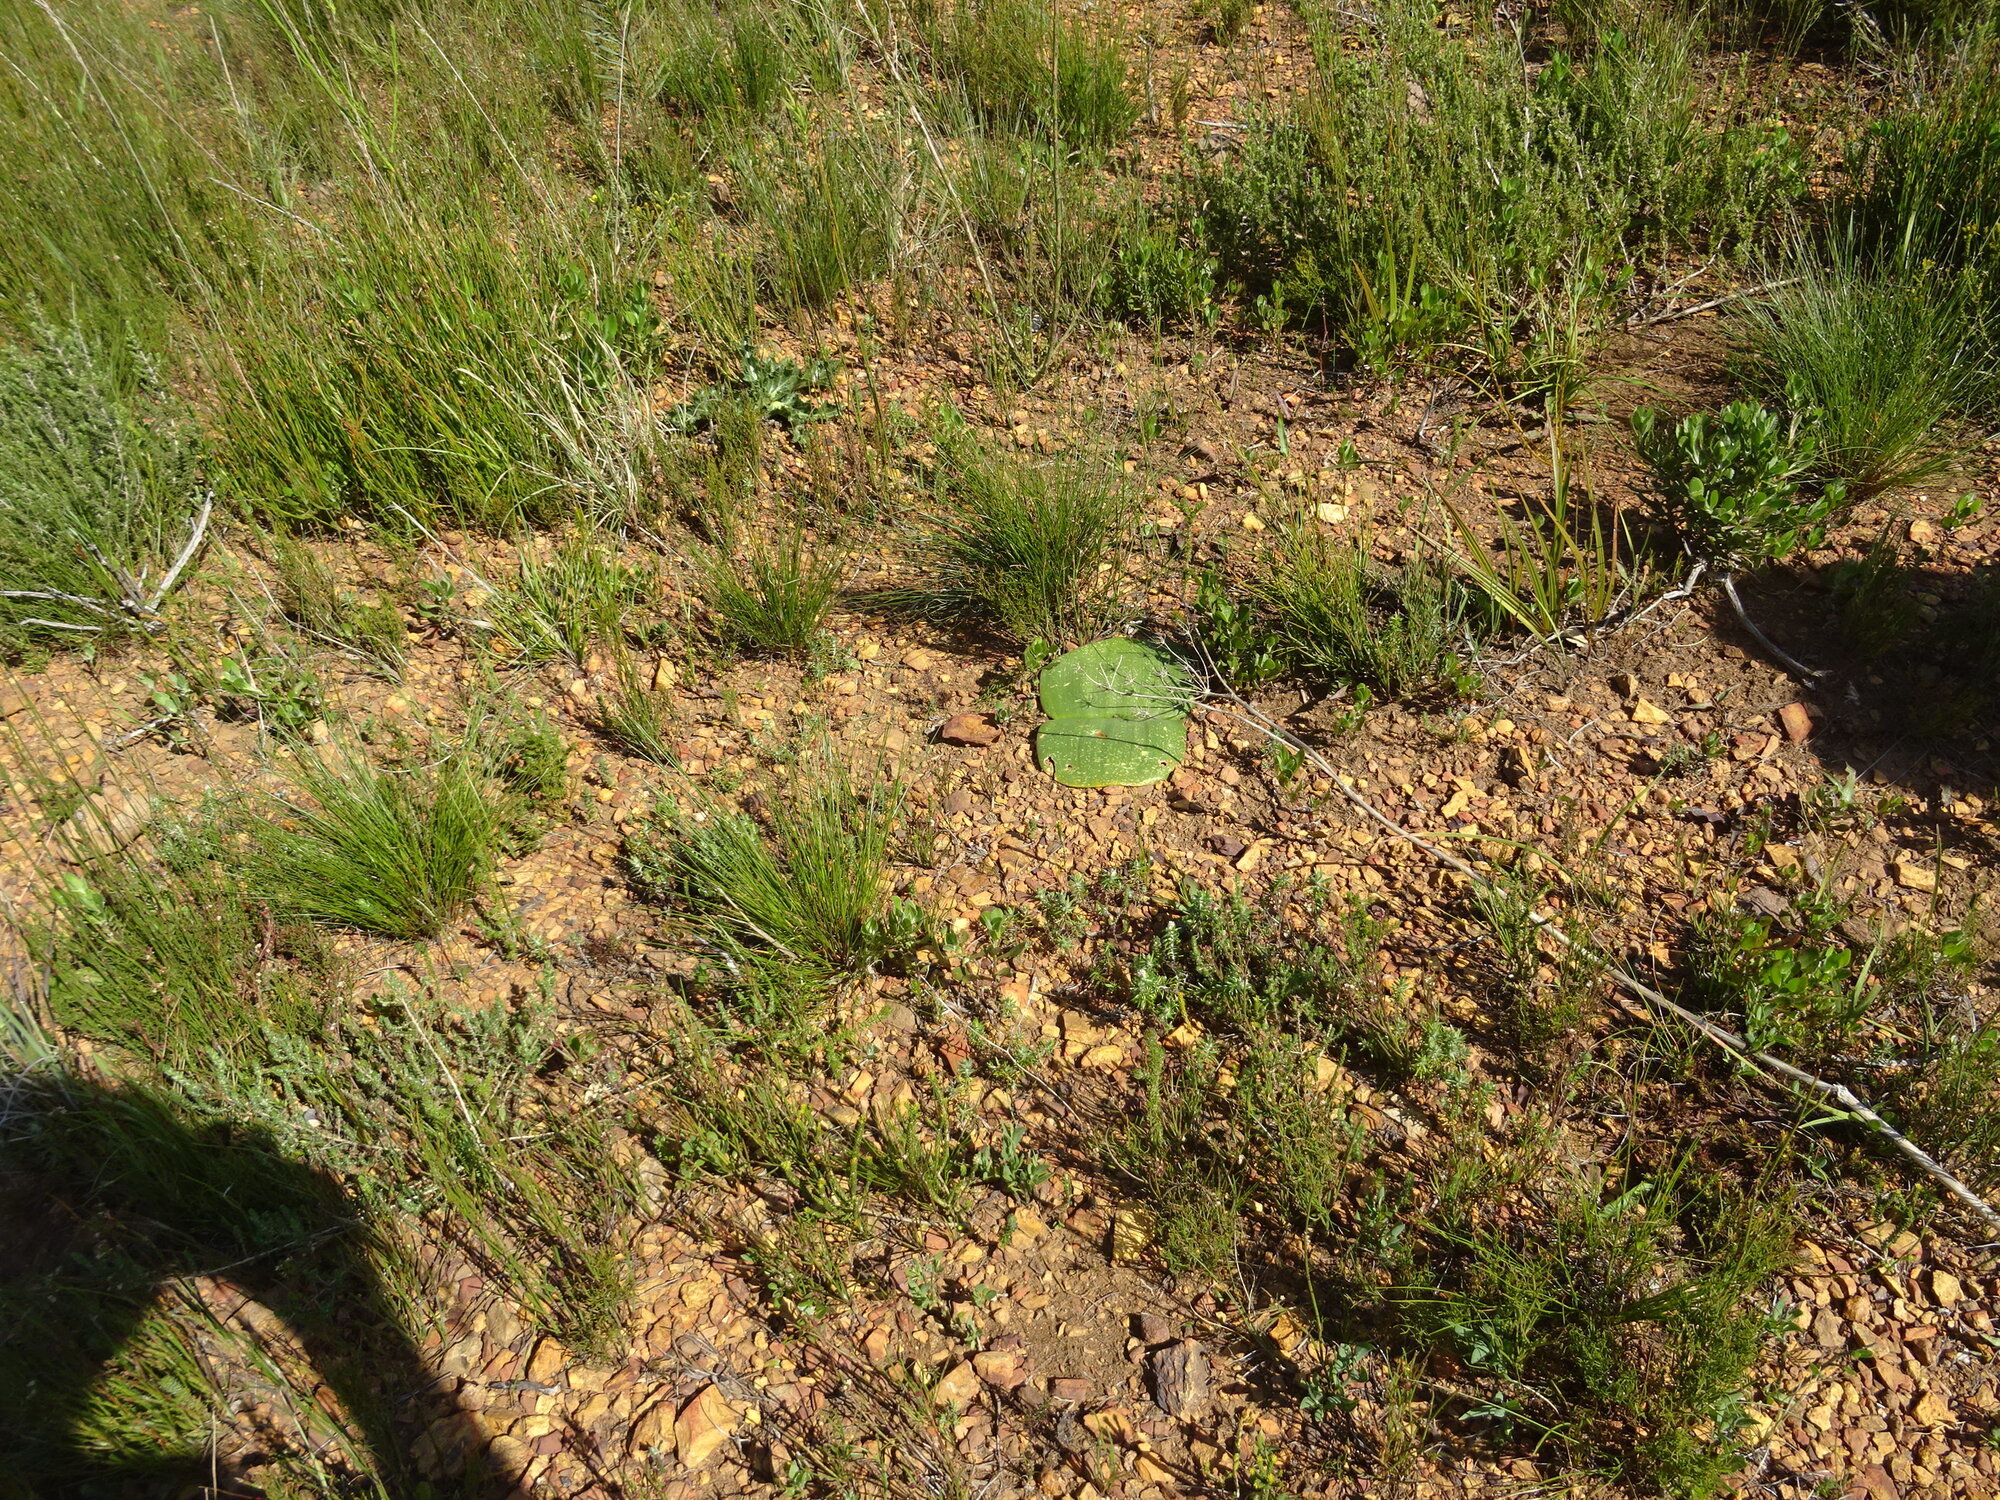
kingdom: Plantae
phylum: Tracheophyta
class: Liliopsida
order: Asparagales
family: Amaryllidaceae
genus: Haemanthus
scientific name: Haemanthus sanguineus
